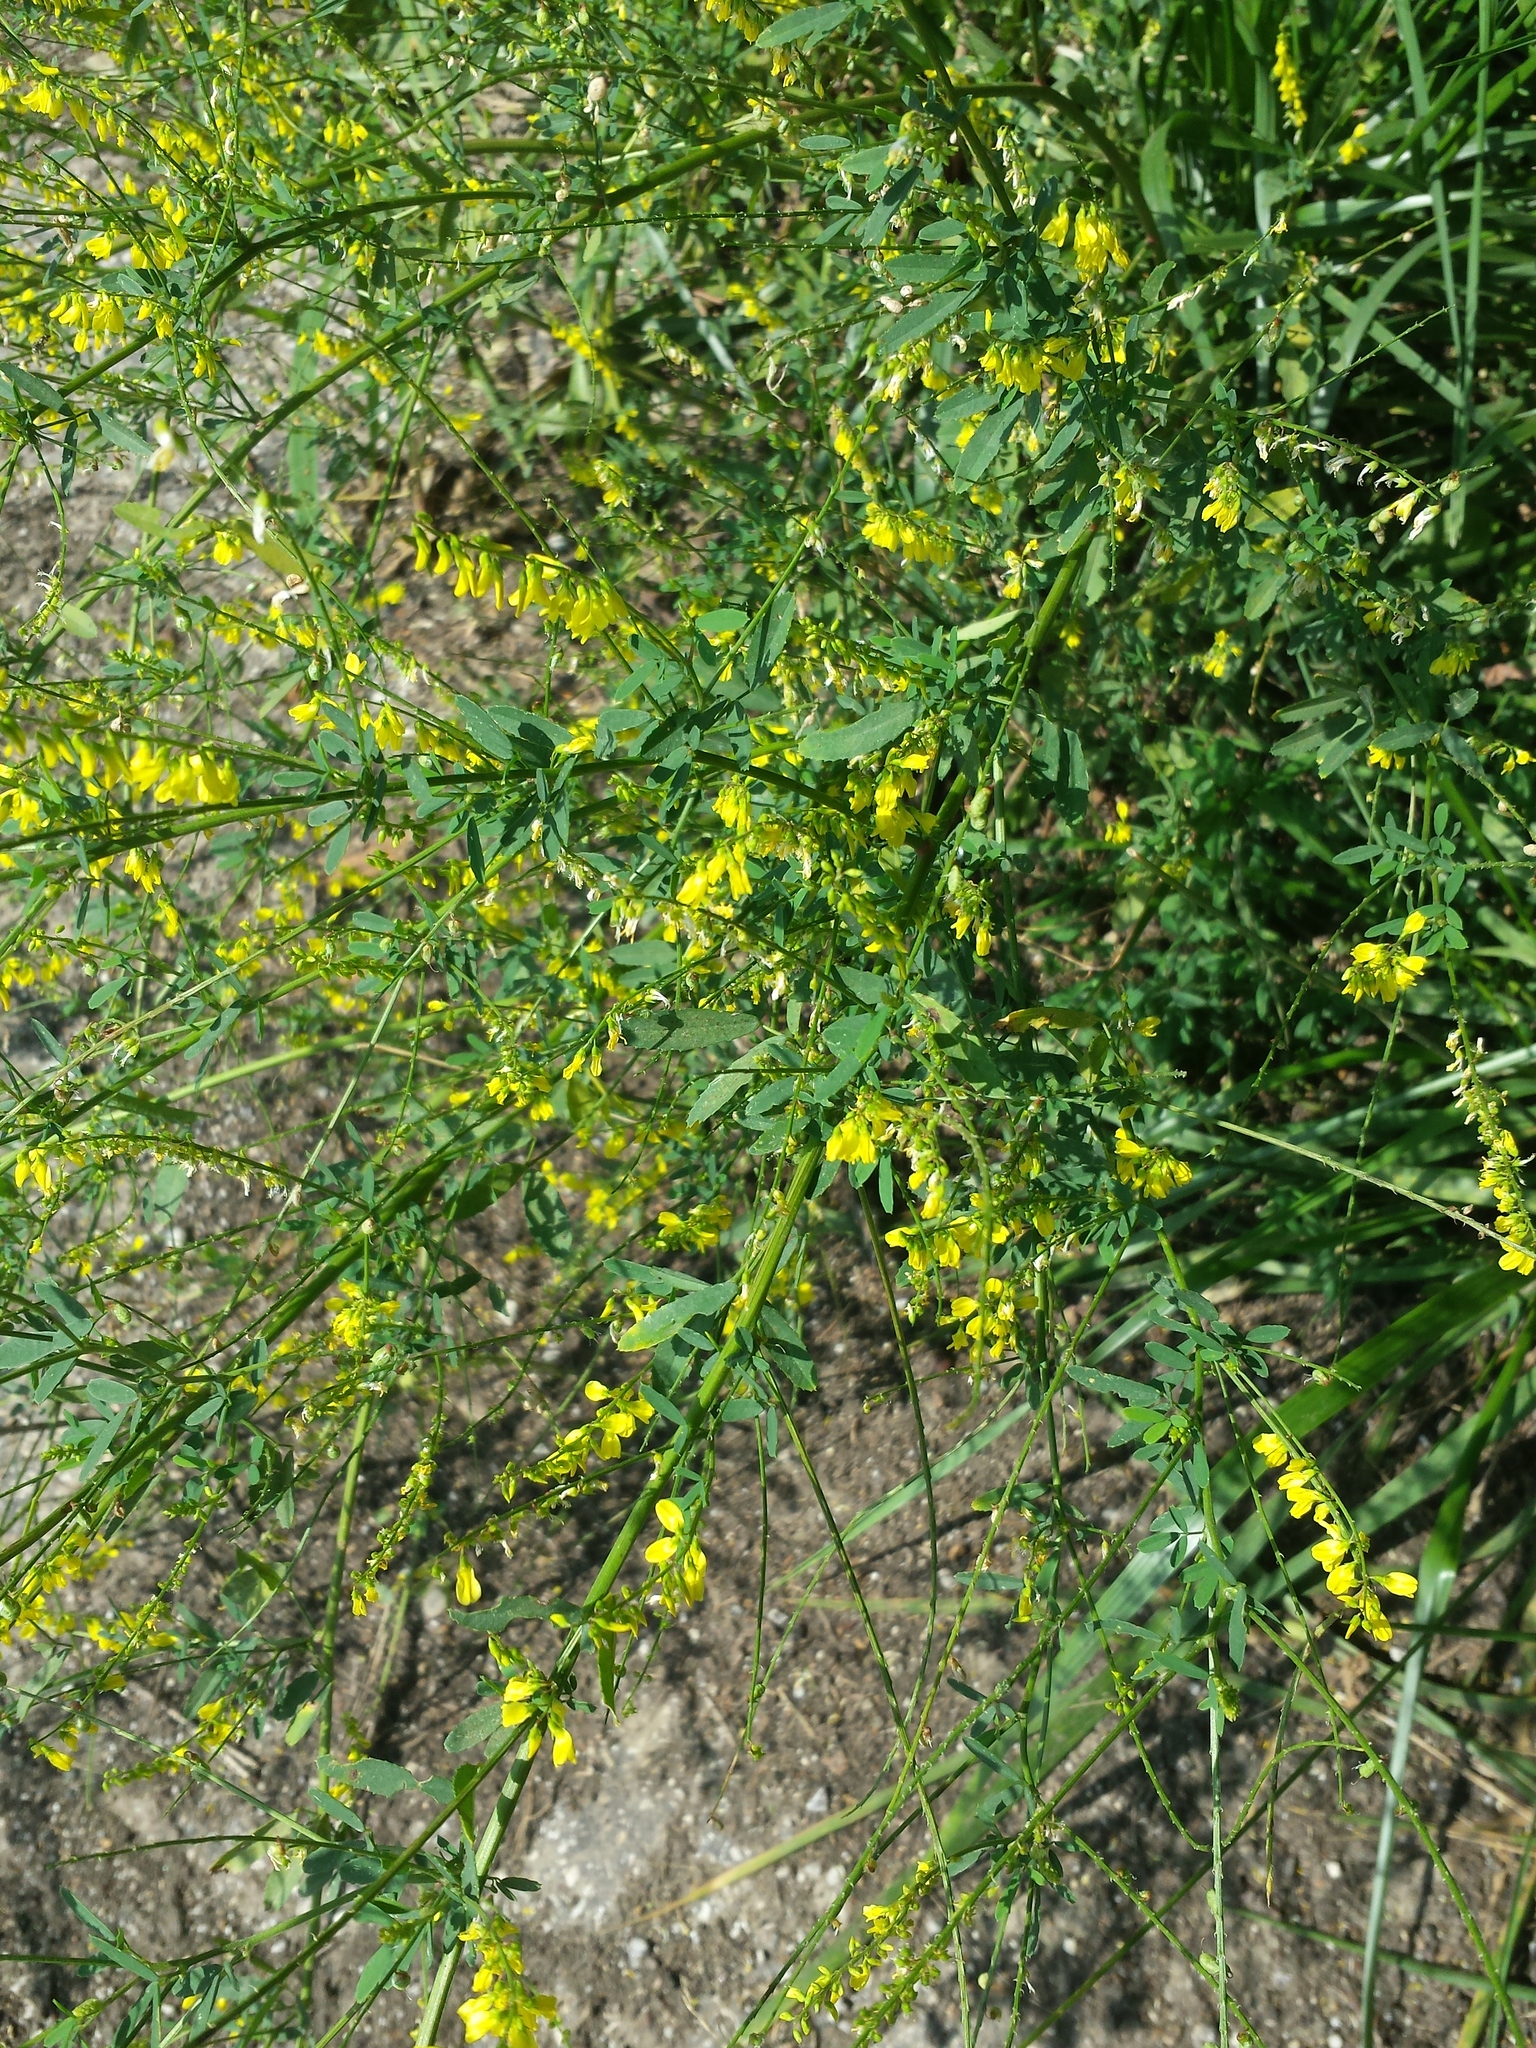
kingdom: Plantae
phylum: Tracheophyta
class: Magnoliopsida
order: Fabales
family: Fabaceae
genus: Melilotus
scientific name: Melilotus officinalis
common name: Sweetclover
